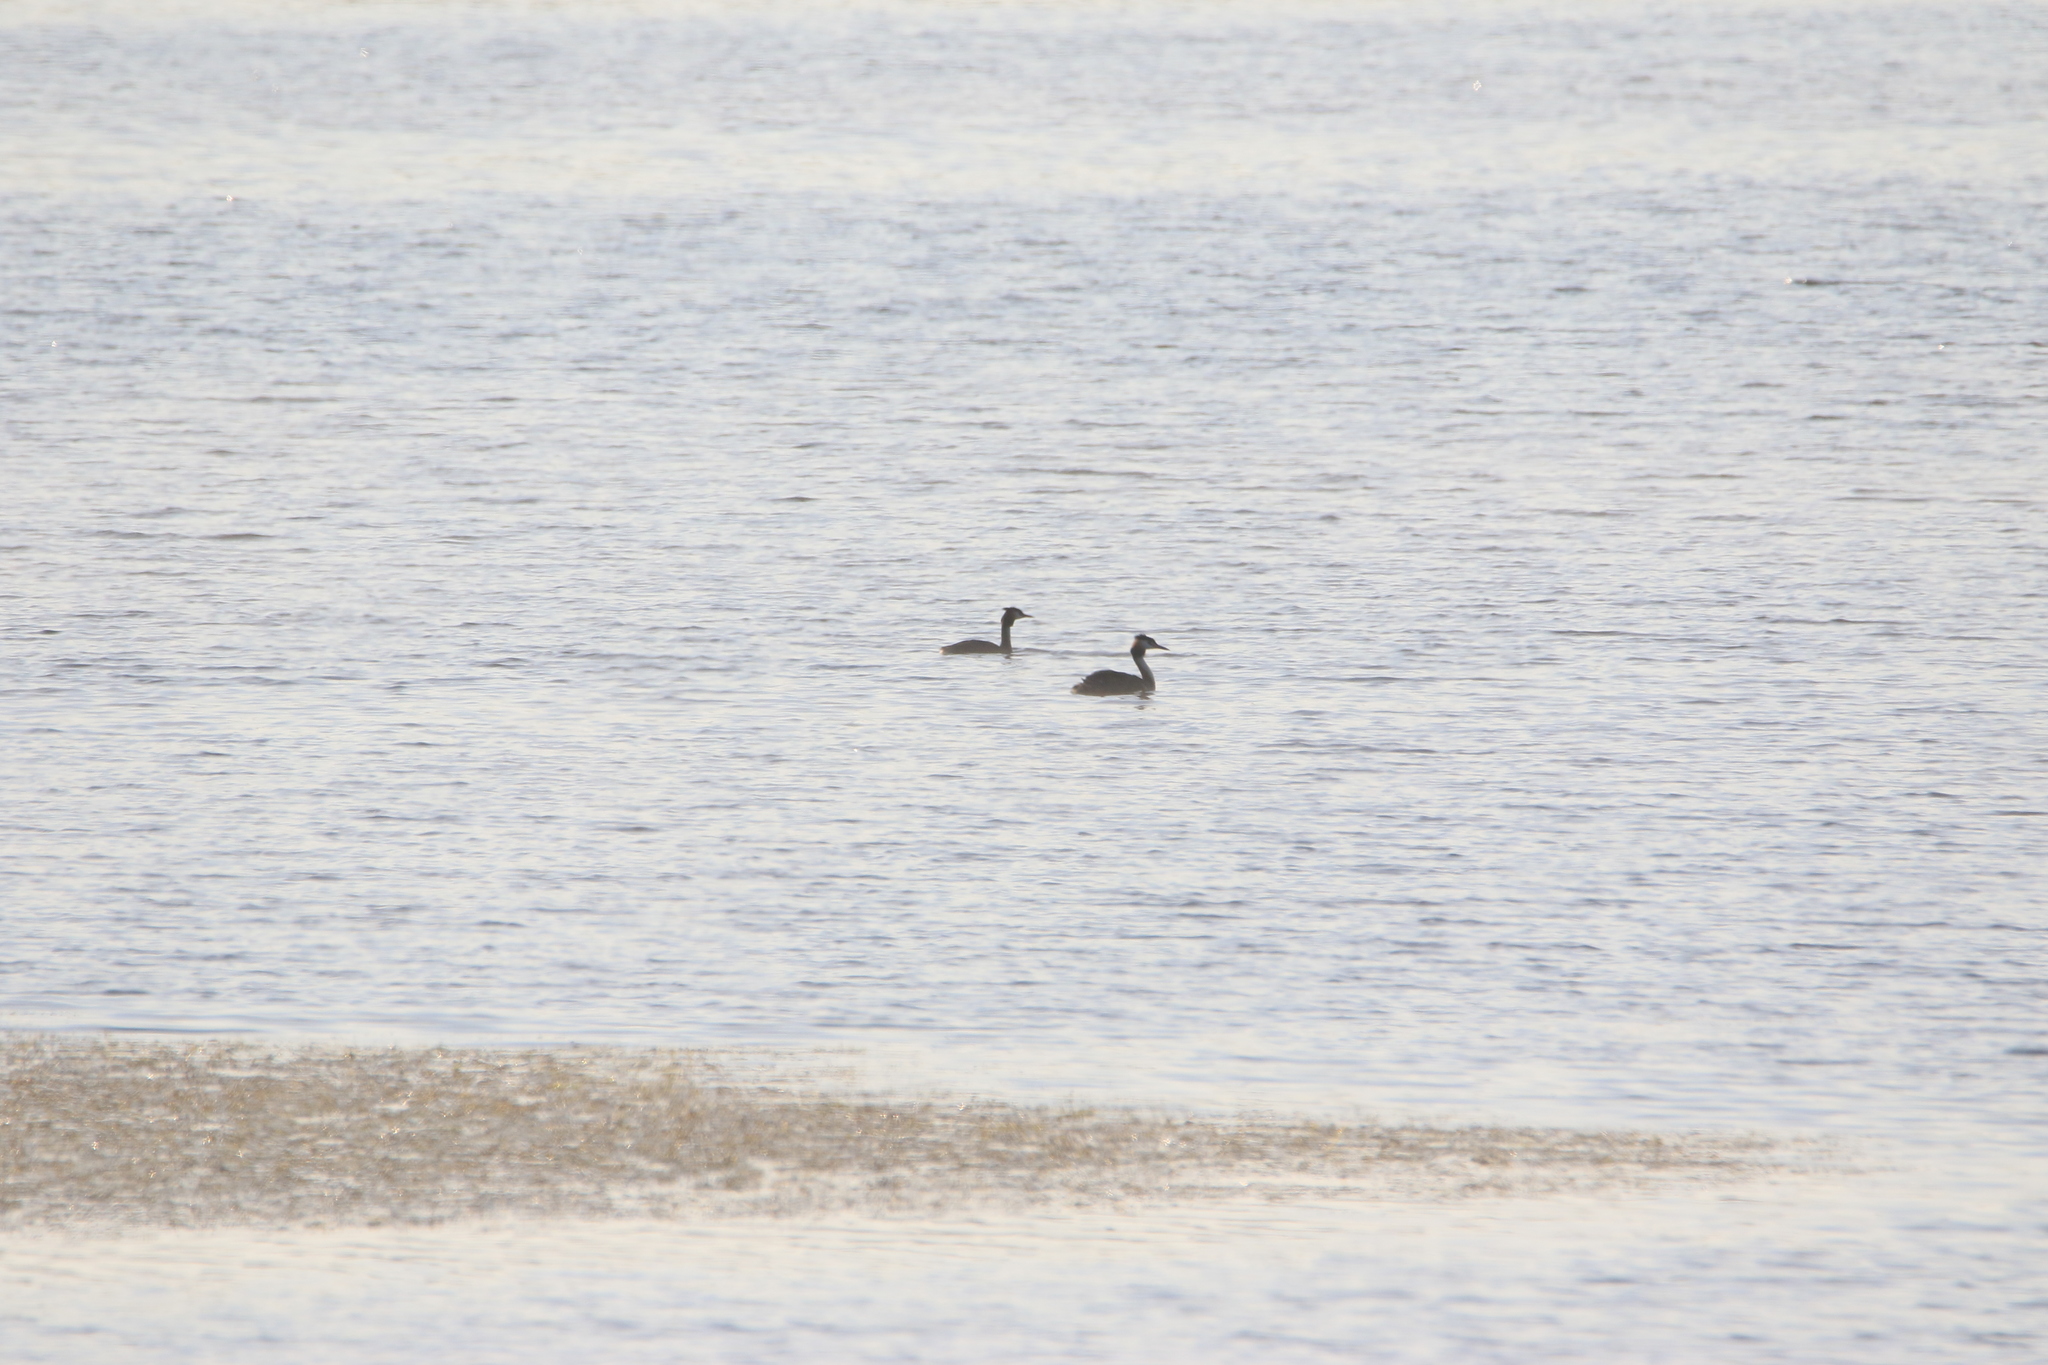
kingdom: Animalia
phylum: Chordata
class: Aves
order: Podicipediformes
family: Podicipedidae
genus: Podiceps
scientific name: Podiceps cristatus
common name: Great crested grebe
